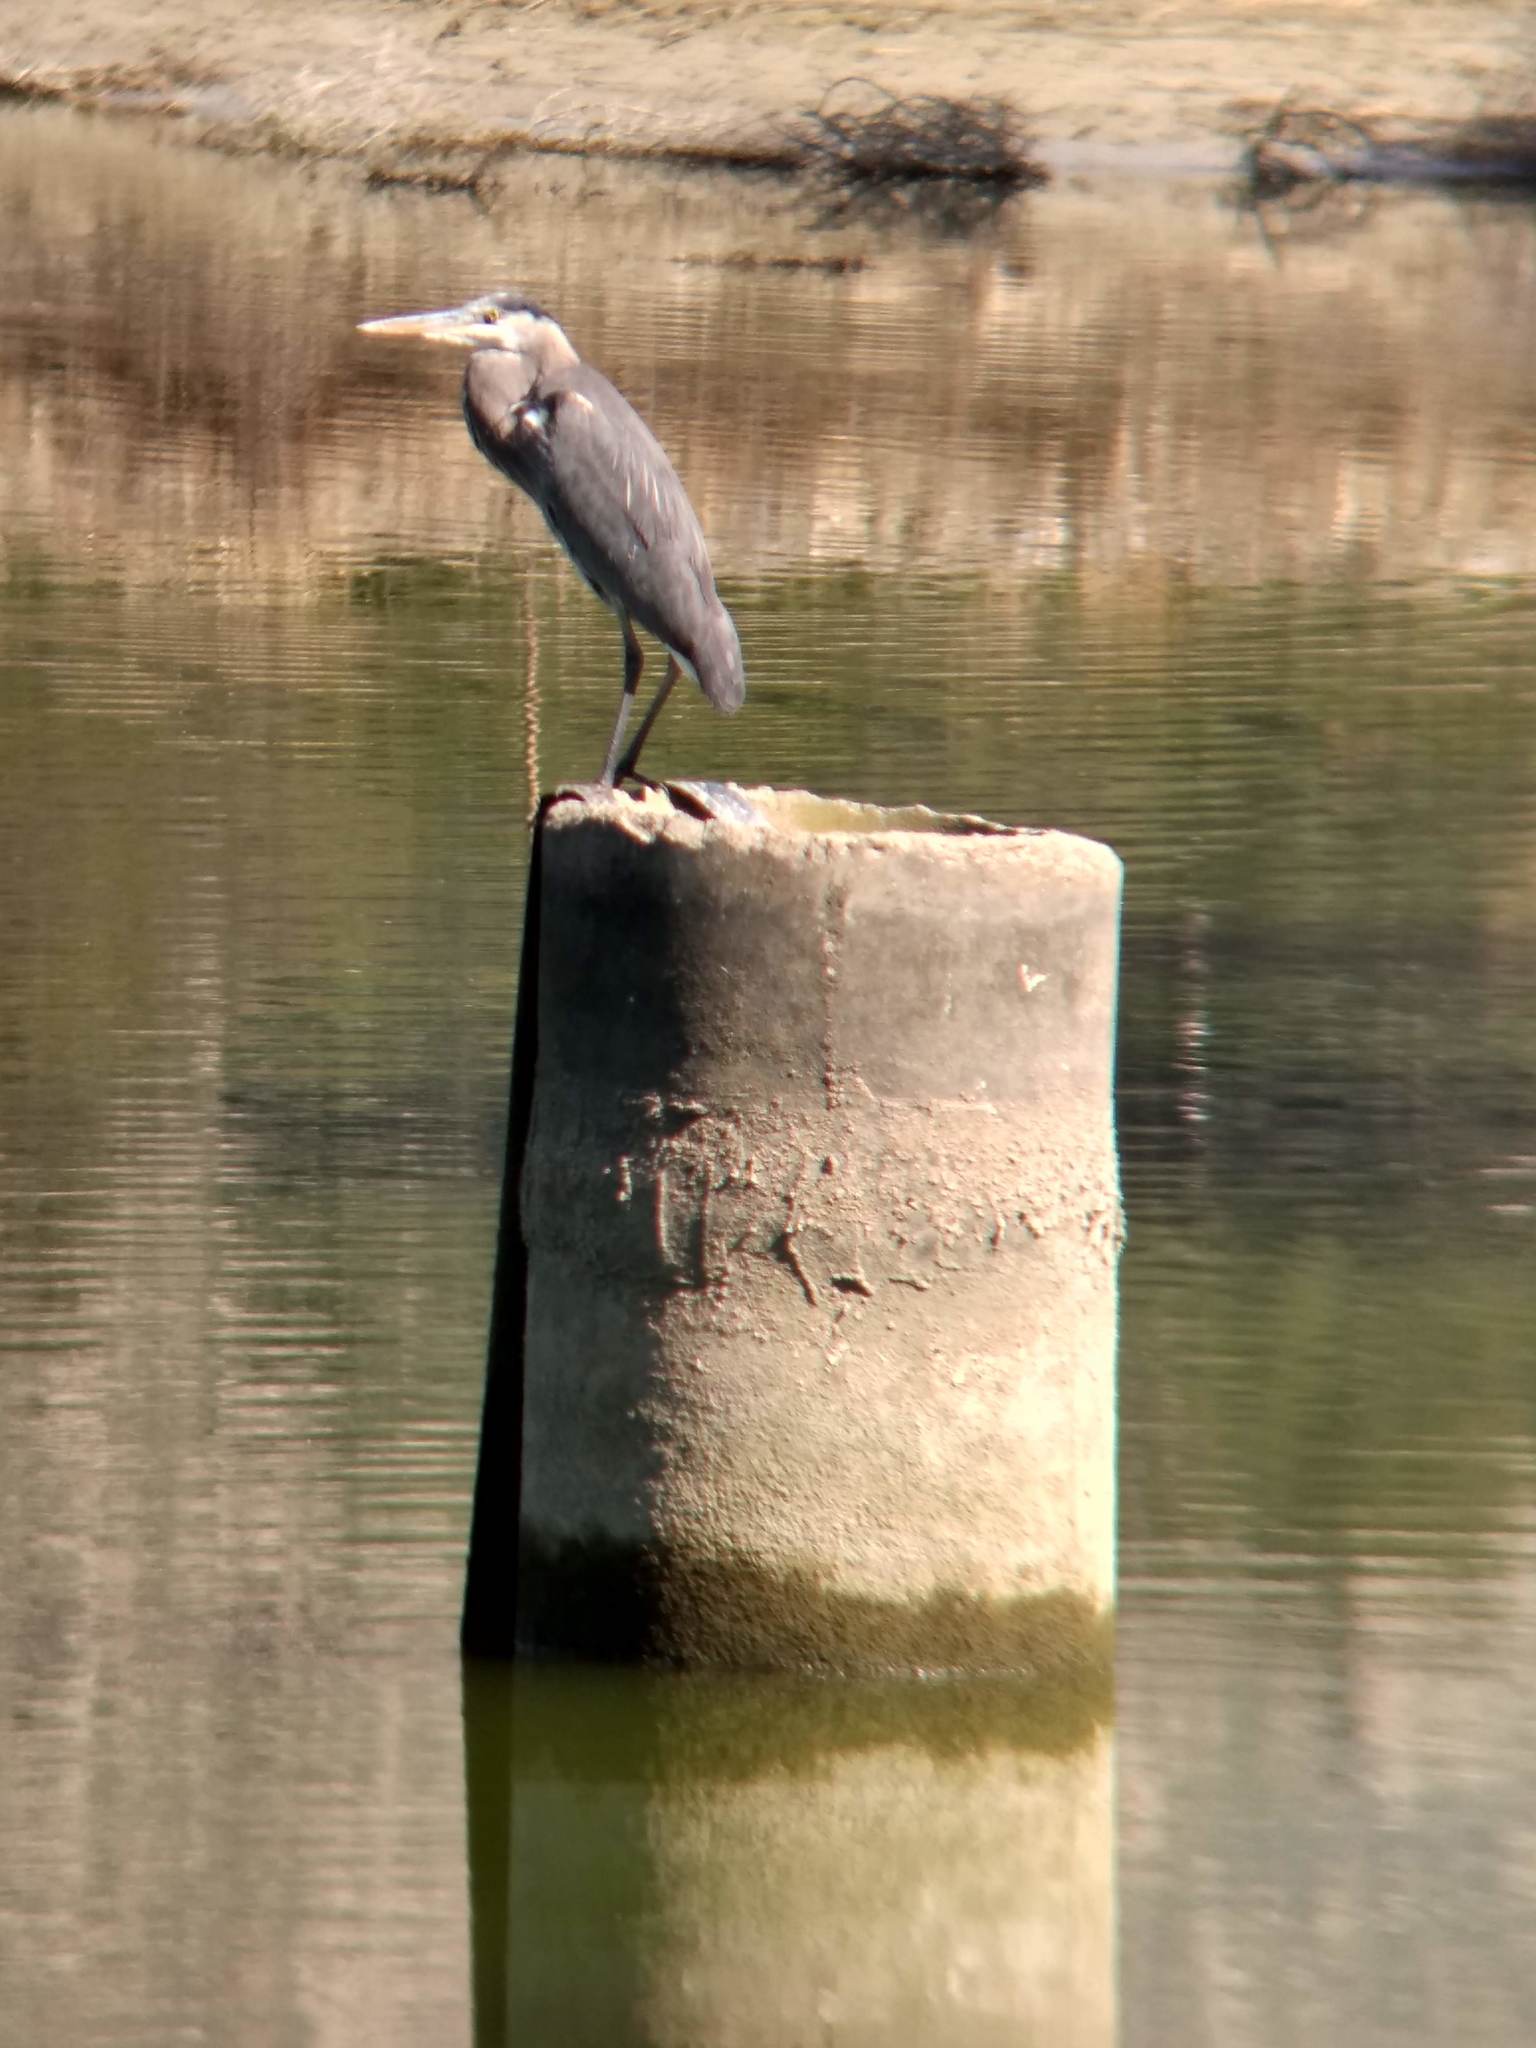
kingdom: Animalia
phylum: Chordata
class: Aves
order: Pelecaniformes
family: Ardeidae
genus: Ardea
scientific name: Ardea herodias
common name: Great blue heron
